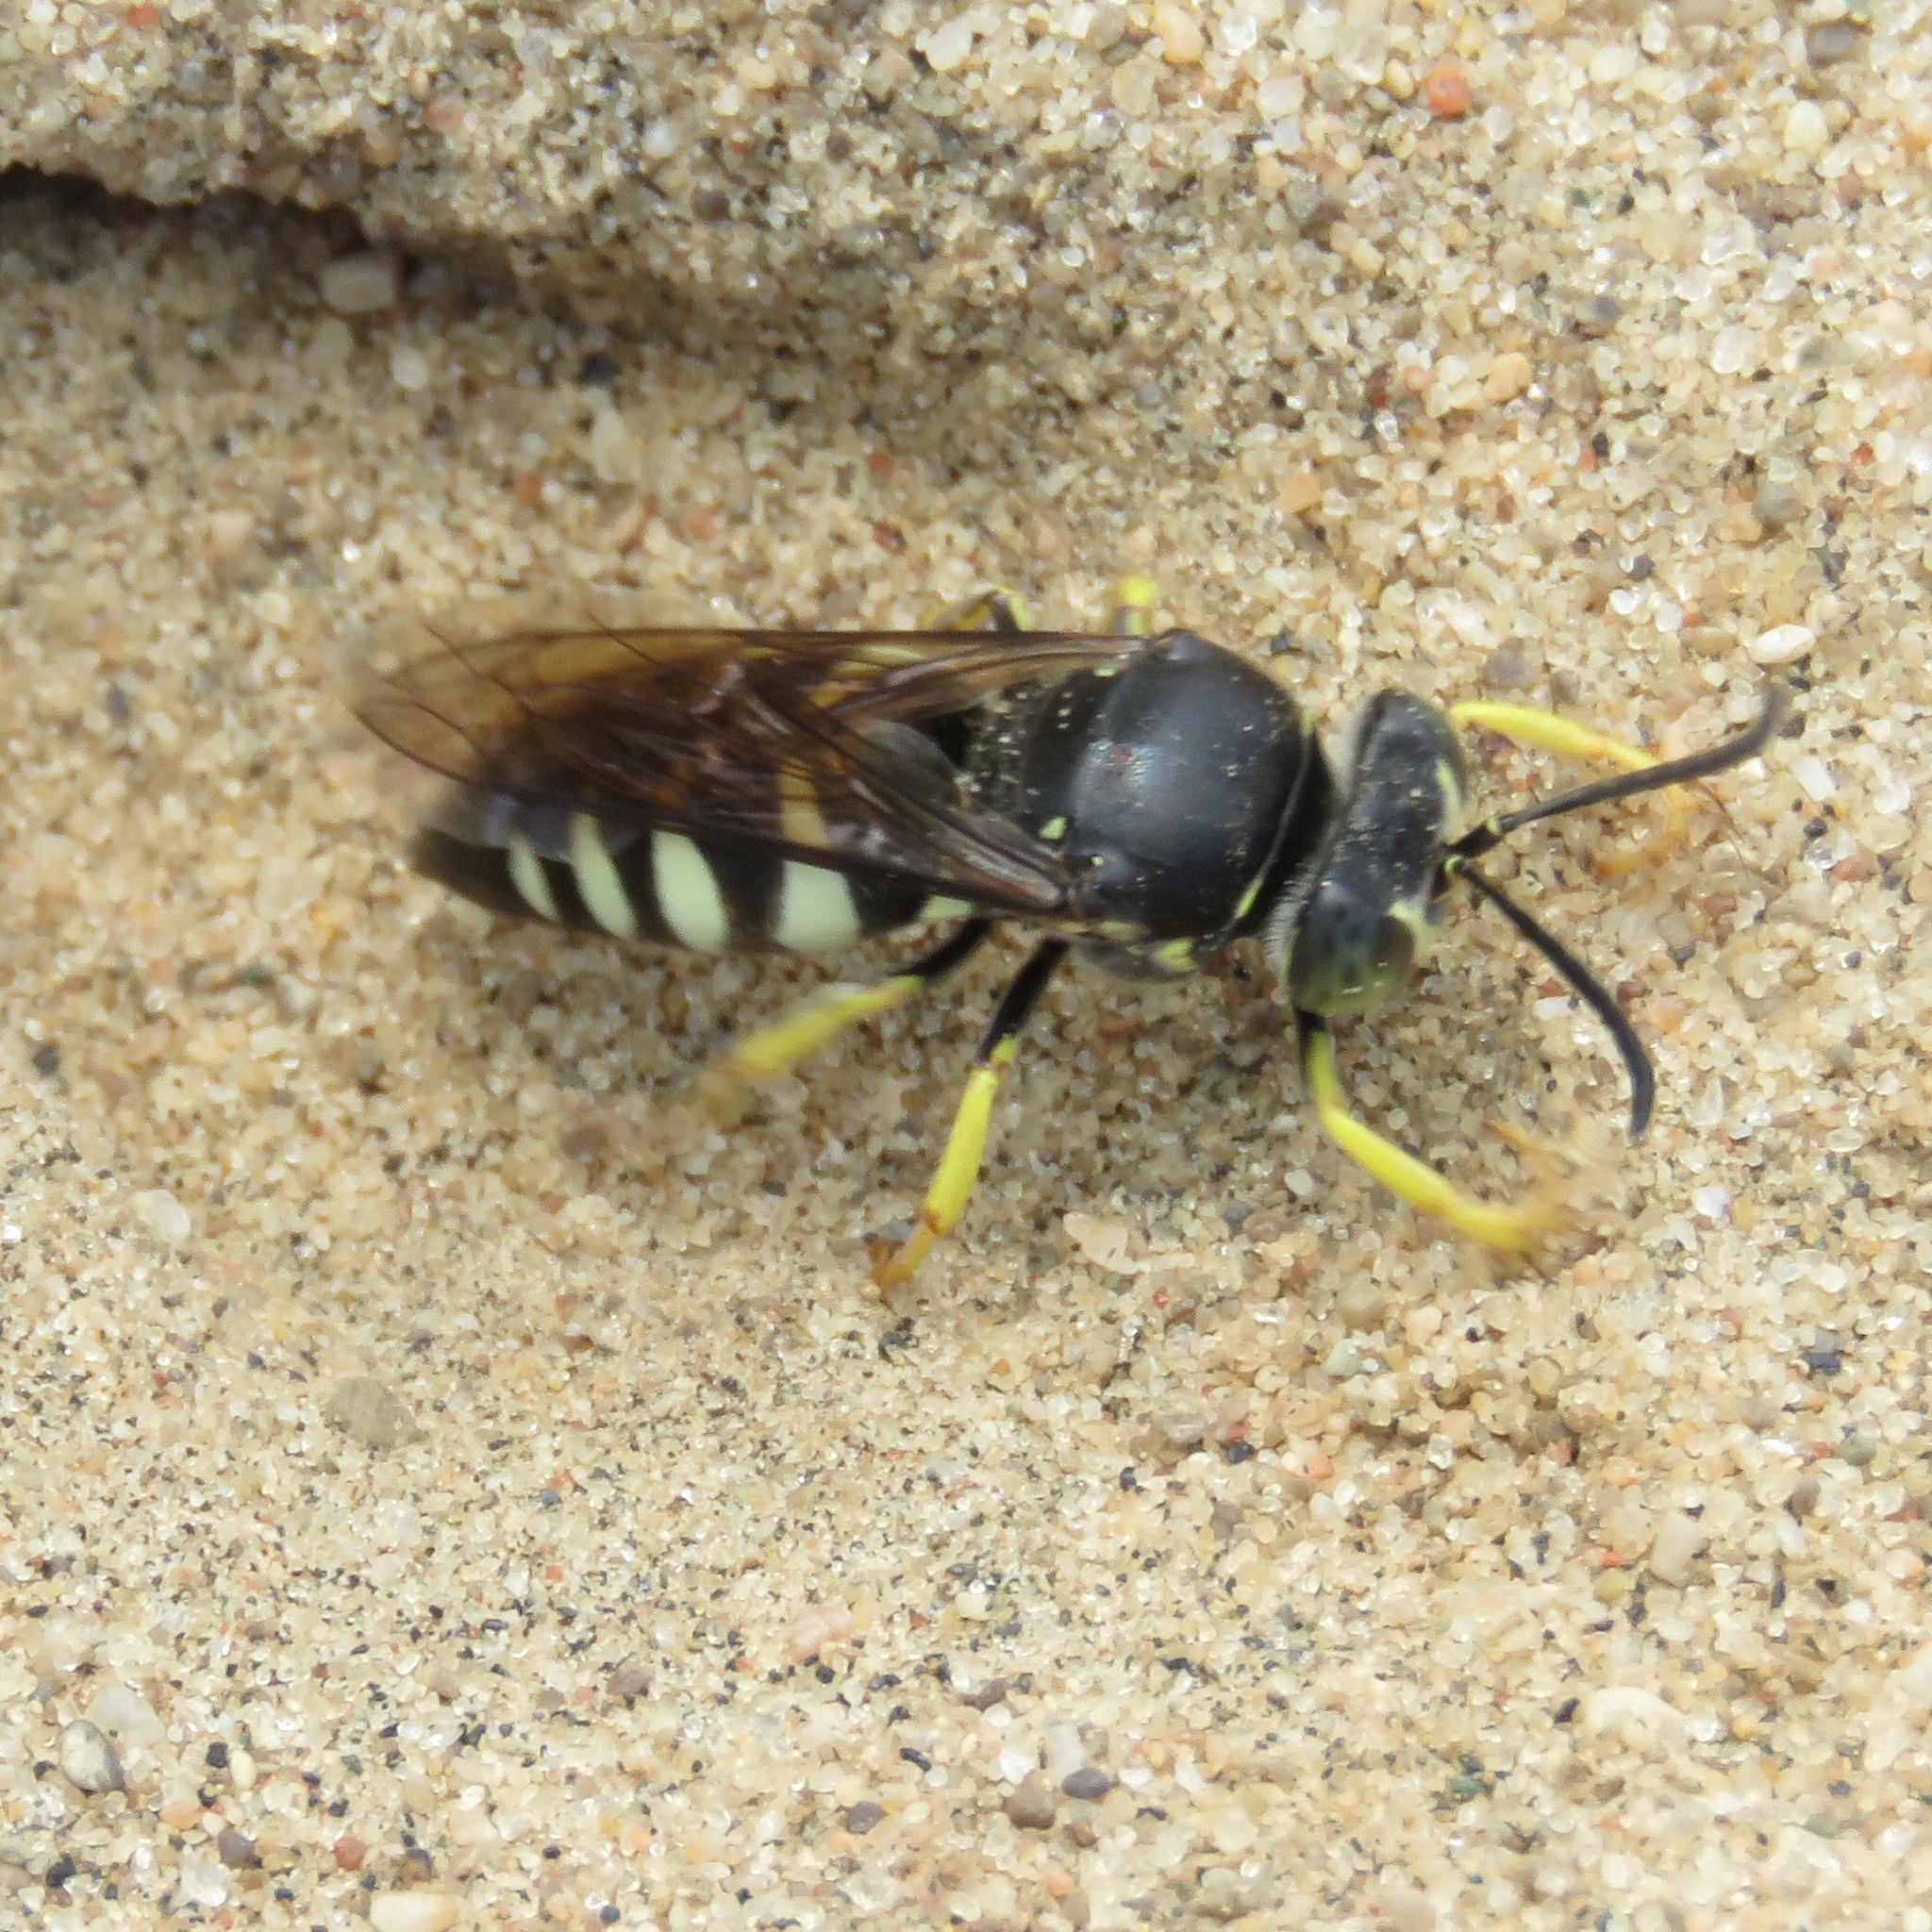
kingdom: Animalia
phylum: Arthropoda
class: Insecta
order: Hymenoptera
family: Crabronidae
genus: Bicyrtes
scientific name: Bicyrtes quadrifasciatus
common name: Four-banded stink bug hunter wasp
